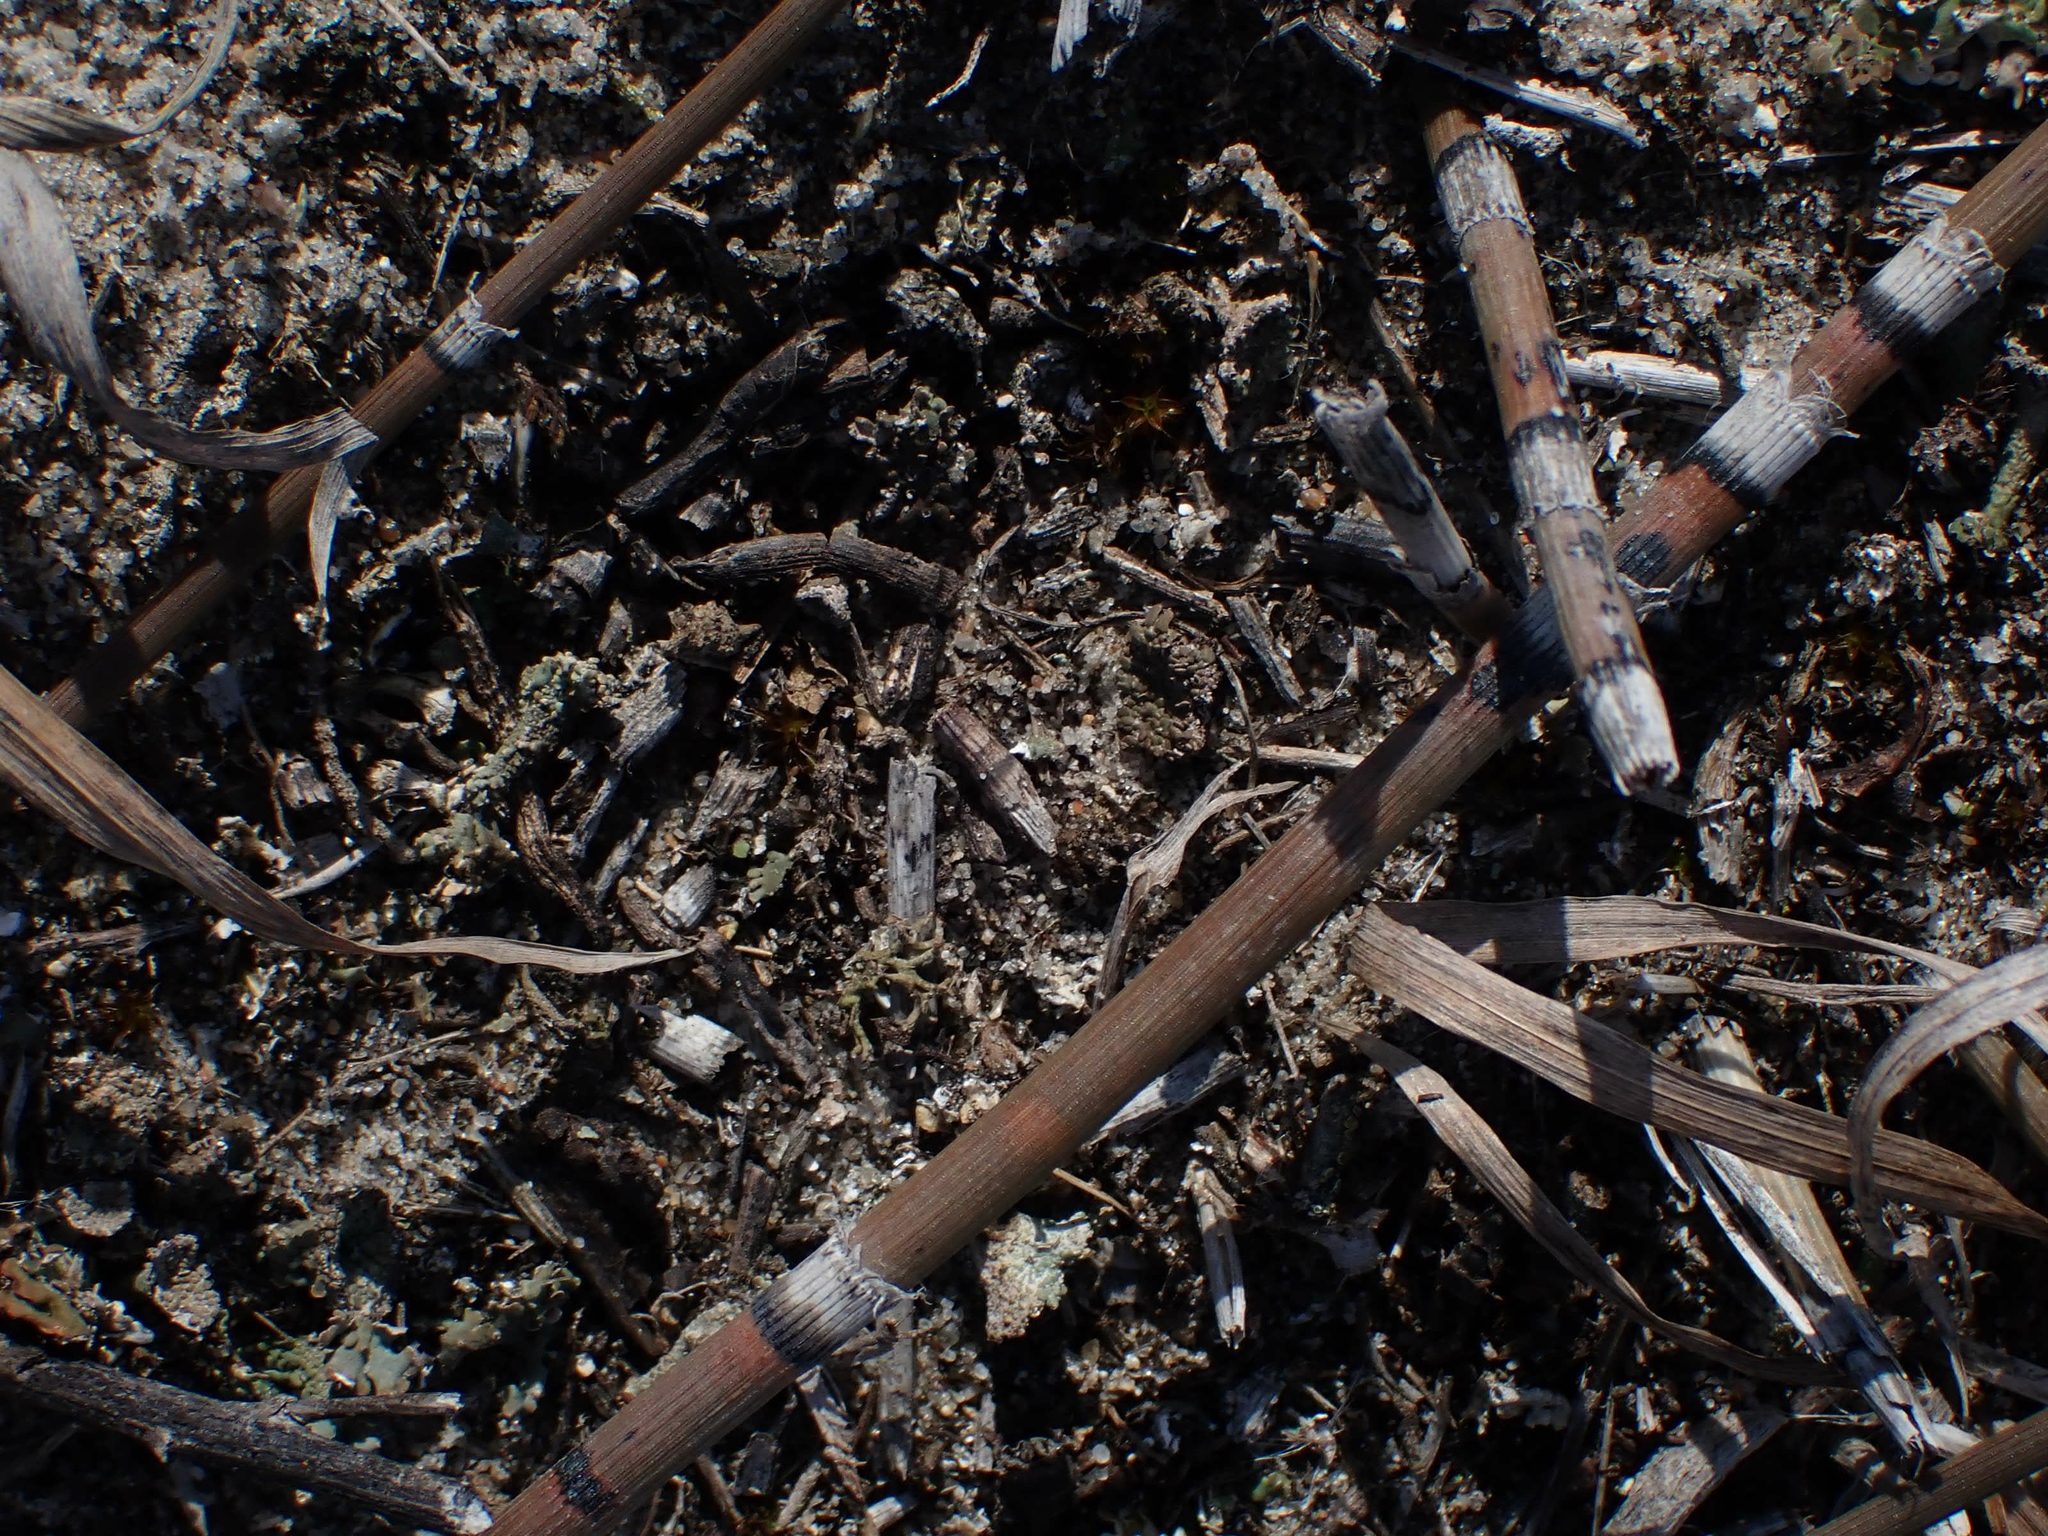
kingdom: Plantae
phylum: Tracheophyta
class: Polypodiopsida
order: Equisetales
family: Equisetaceae
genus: Equisetum
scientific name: Equisetum praealtum
